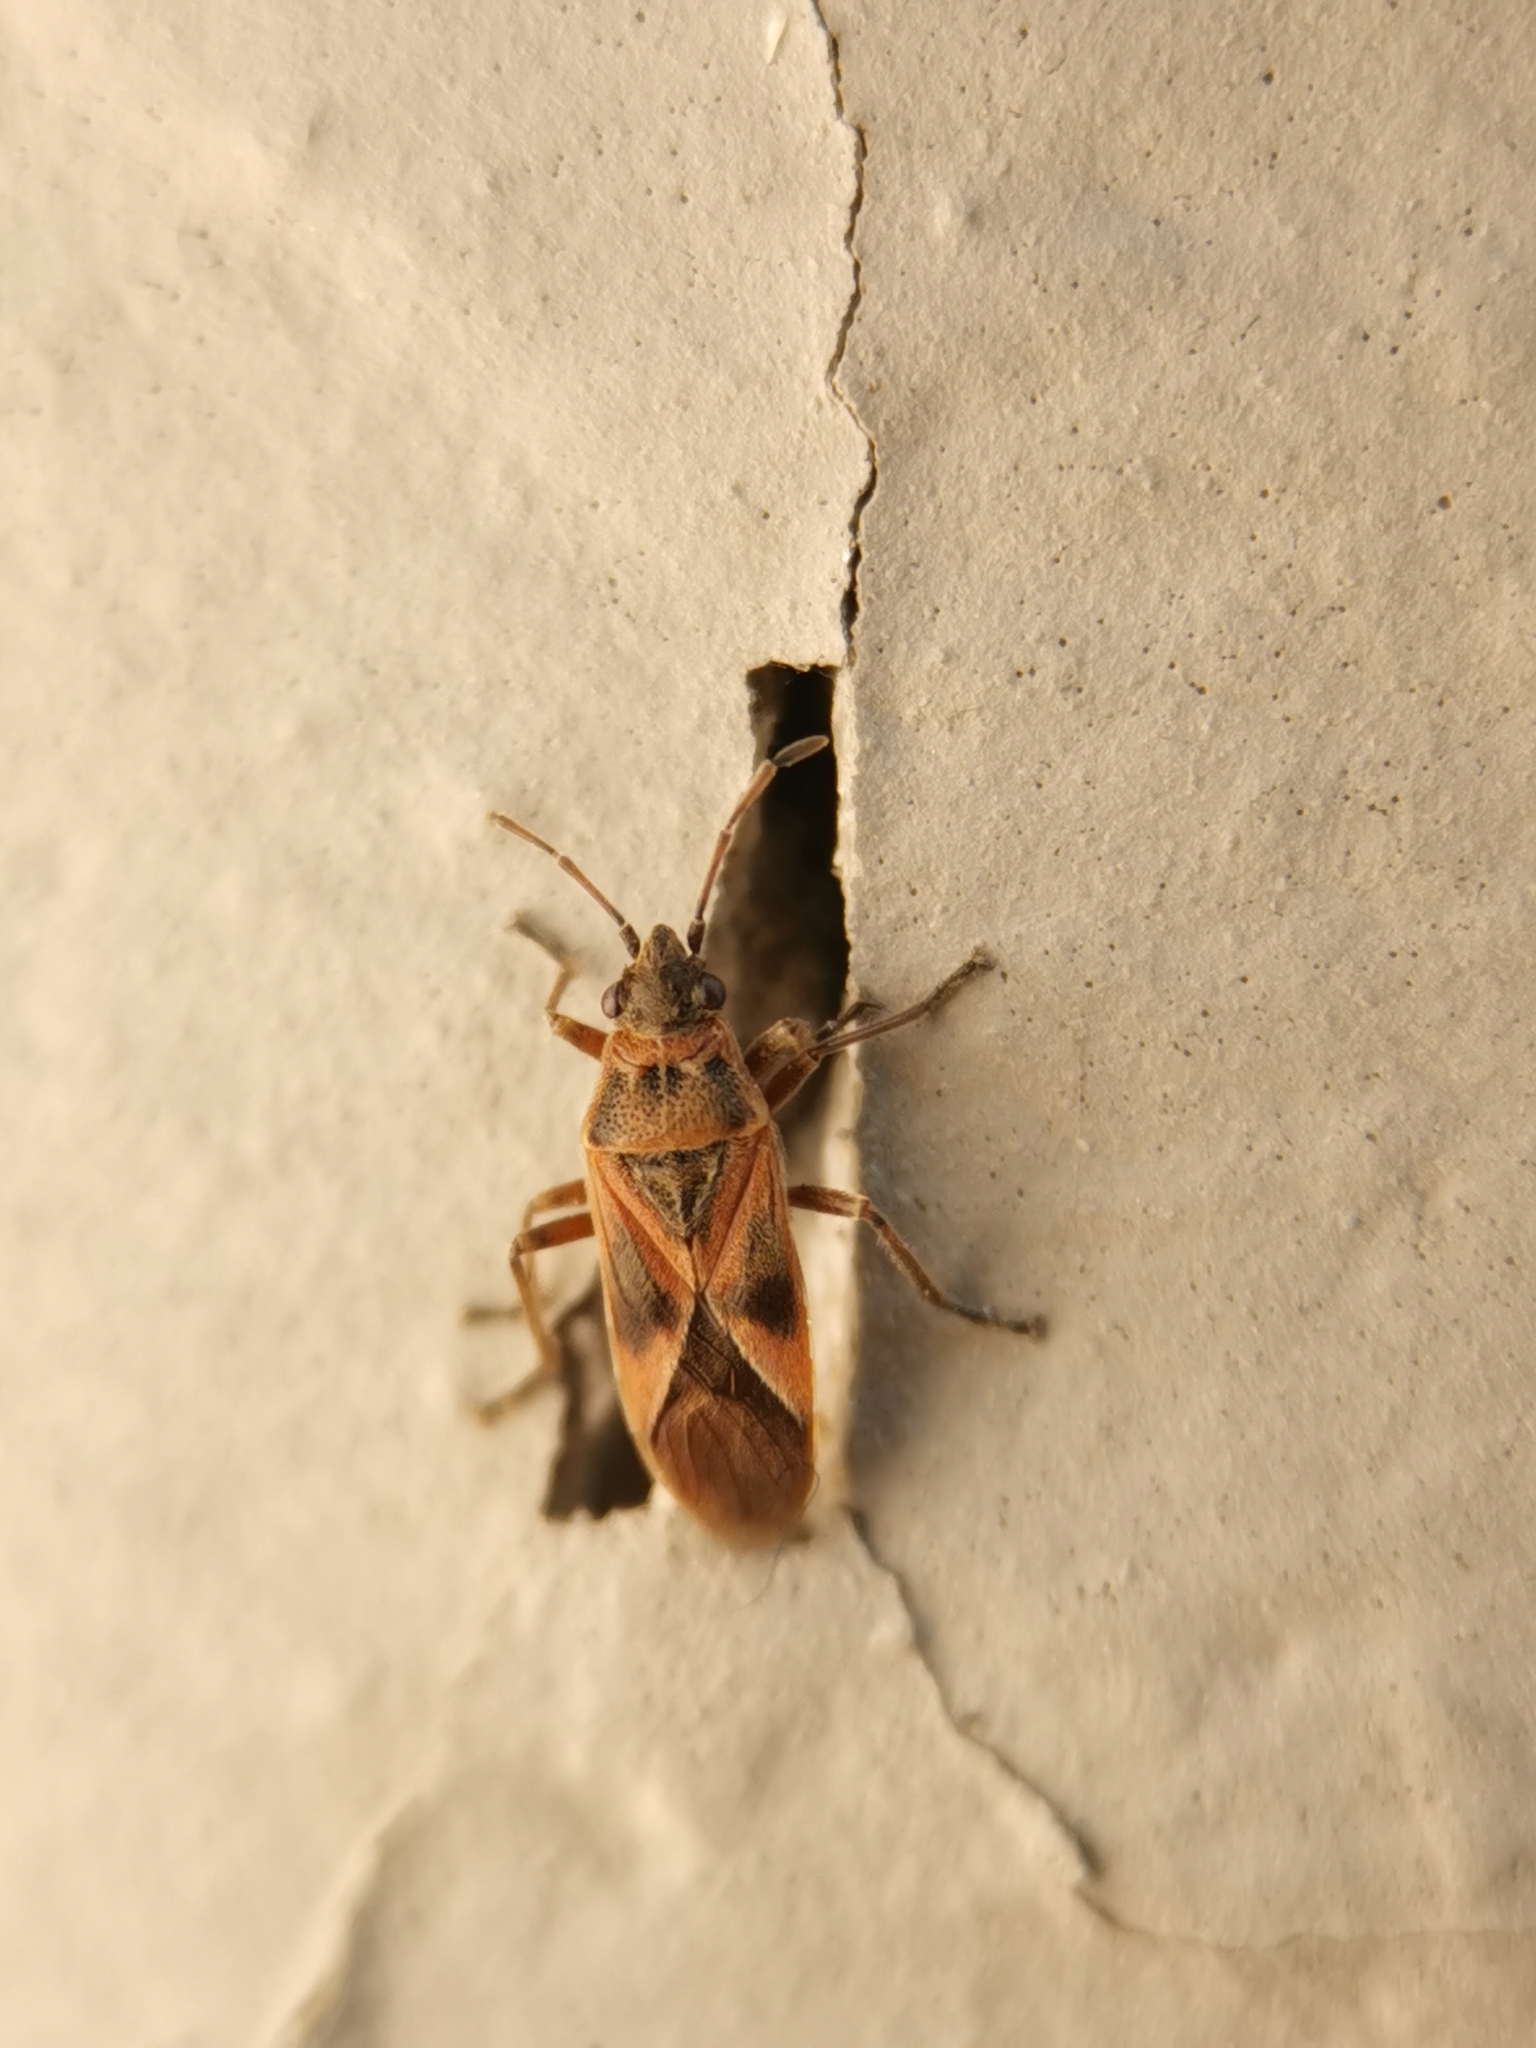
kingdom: Animalia
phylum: Arthropoda
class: Insecta
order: Hemiptera
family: Lygaeidae
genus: Arocatus
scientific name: Arocatus roeselii
